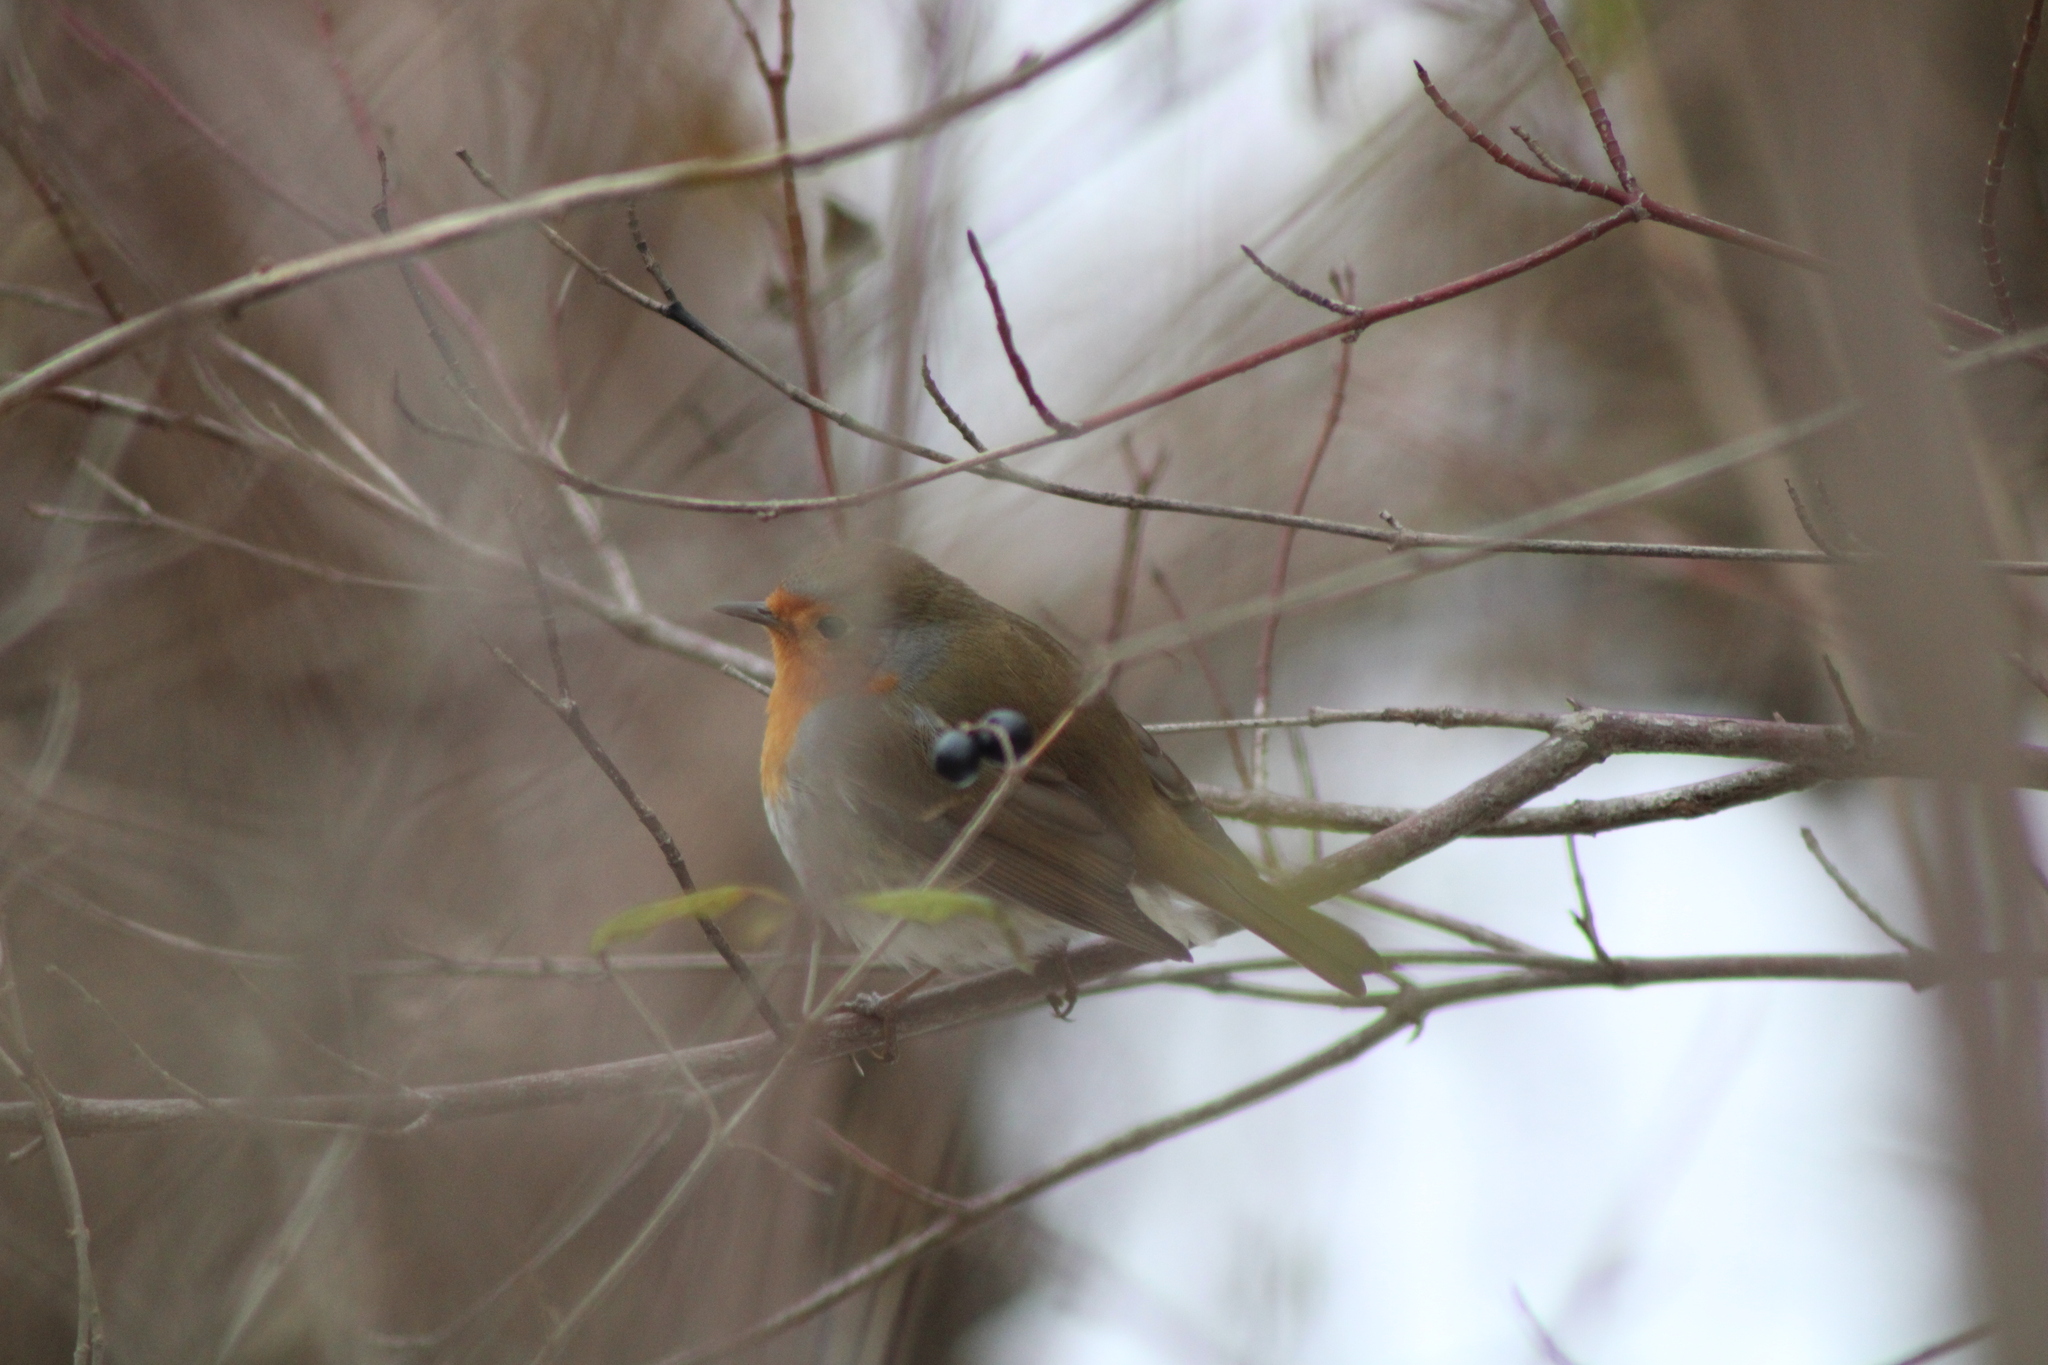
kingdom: Animalia
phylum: Chordata
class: Aves
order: Passeriformes
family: Muscicapidae
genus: Erithacus
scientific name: Erithacus rubecula
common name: European robin
